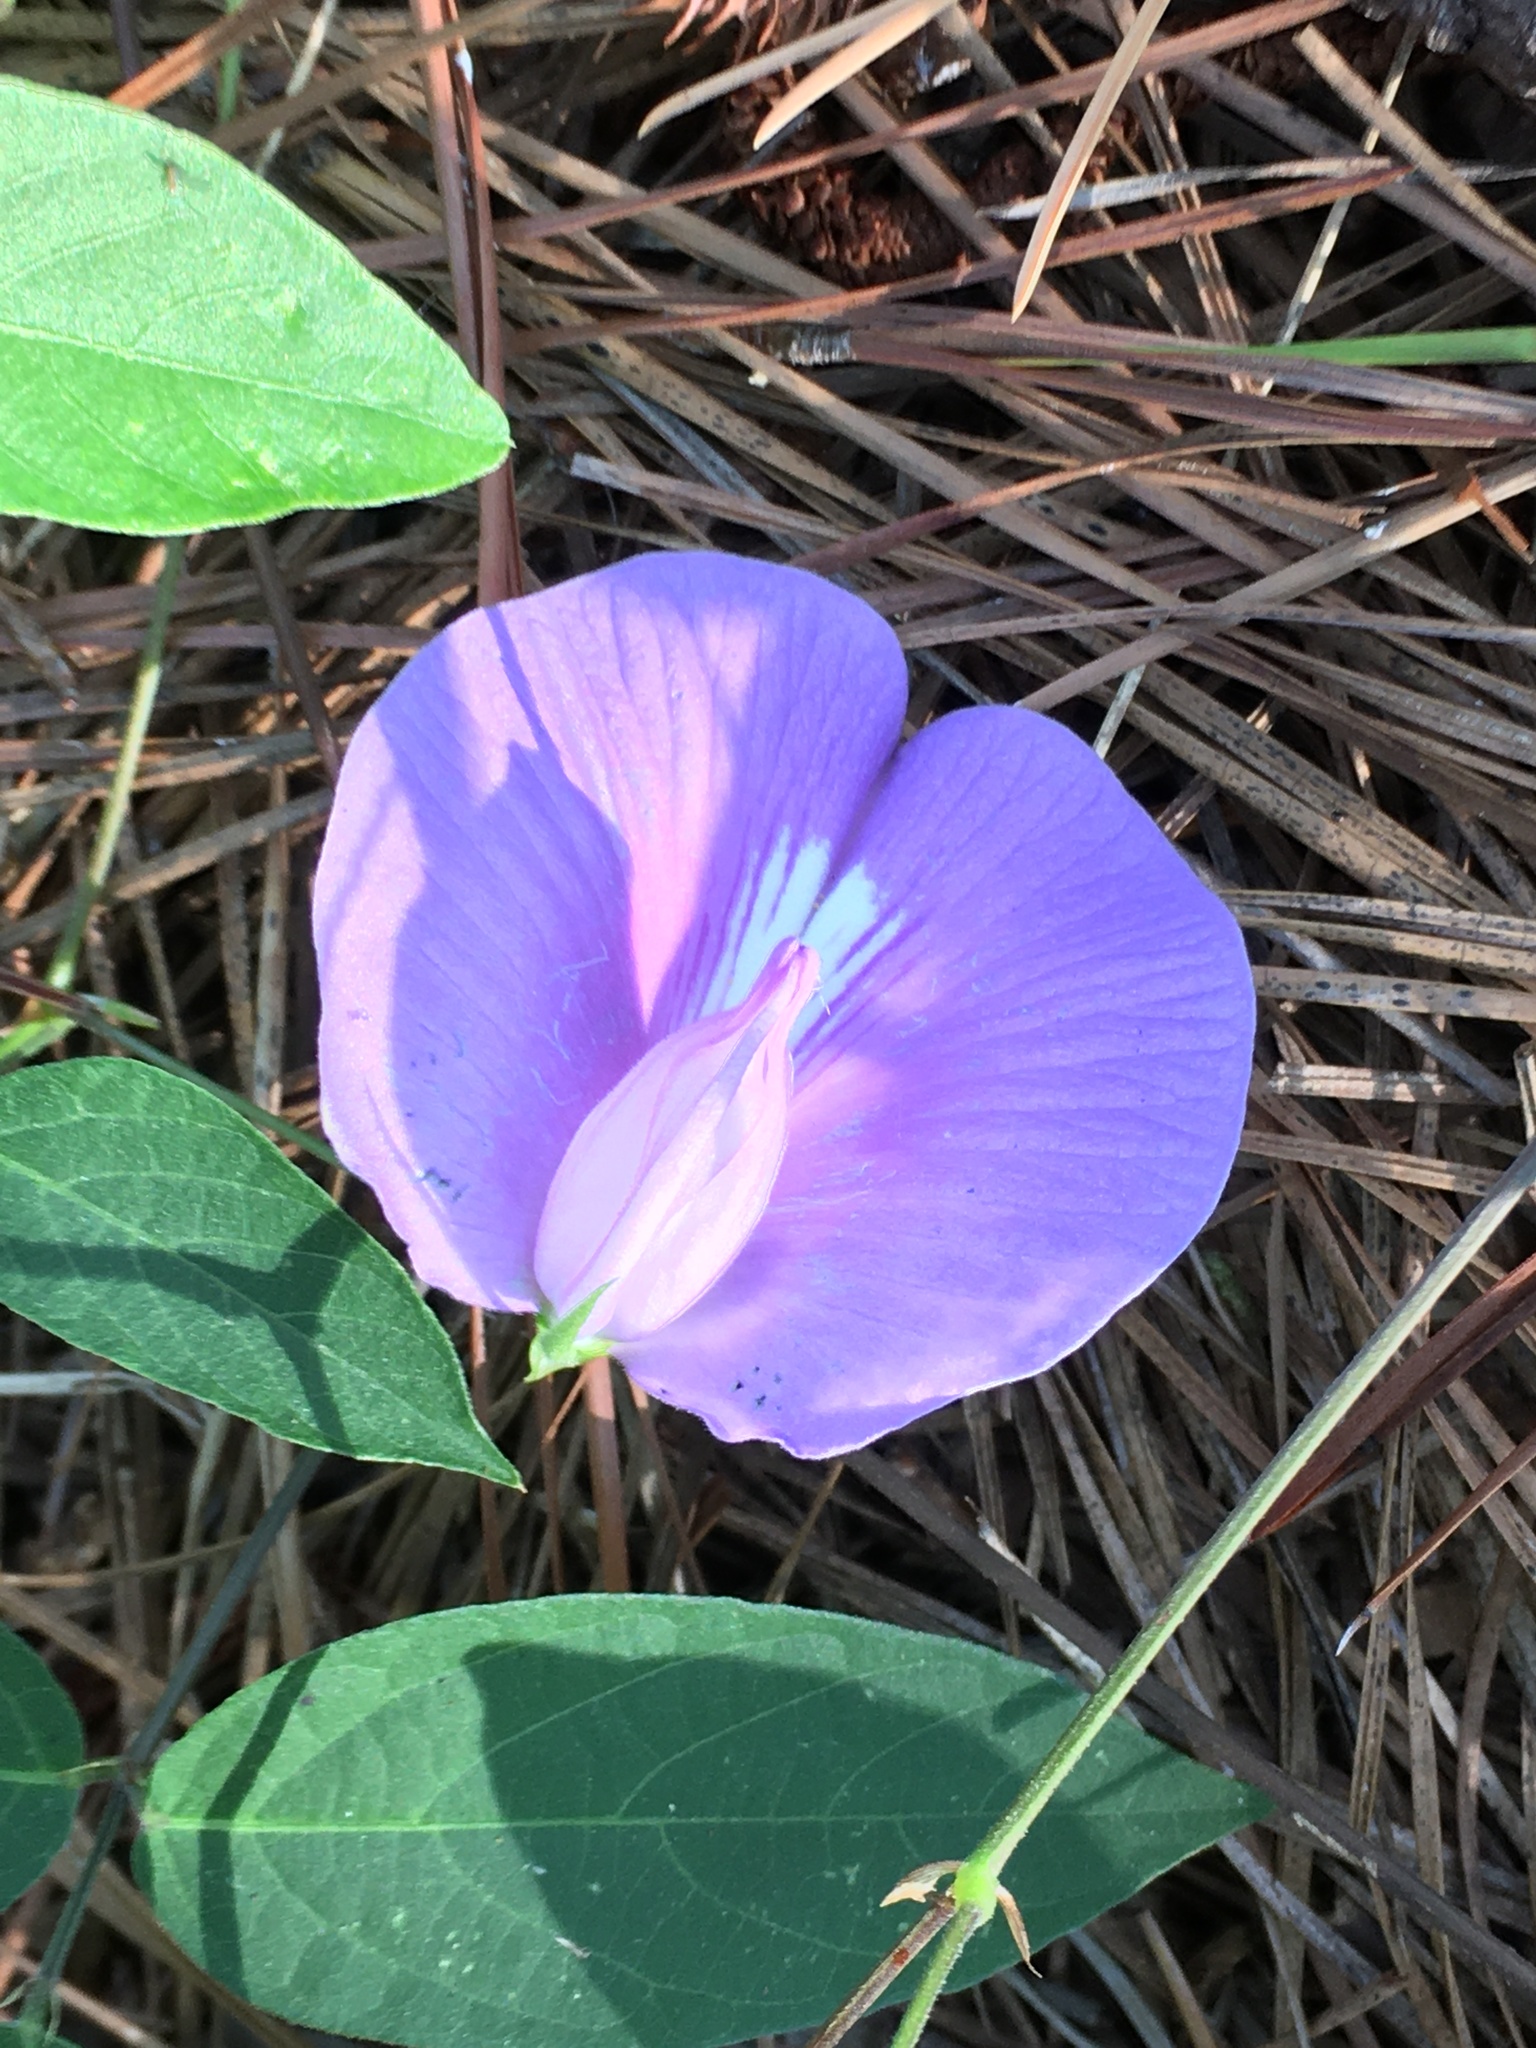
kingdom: Plantae
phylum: Tracheophyta
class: Magnoliopsida
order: Fabales
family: Fabaceae
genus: Centrosema
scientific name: Centrosema virginianum
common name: Butterfly-pea
